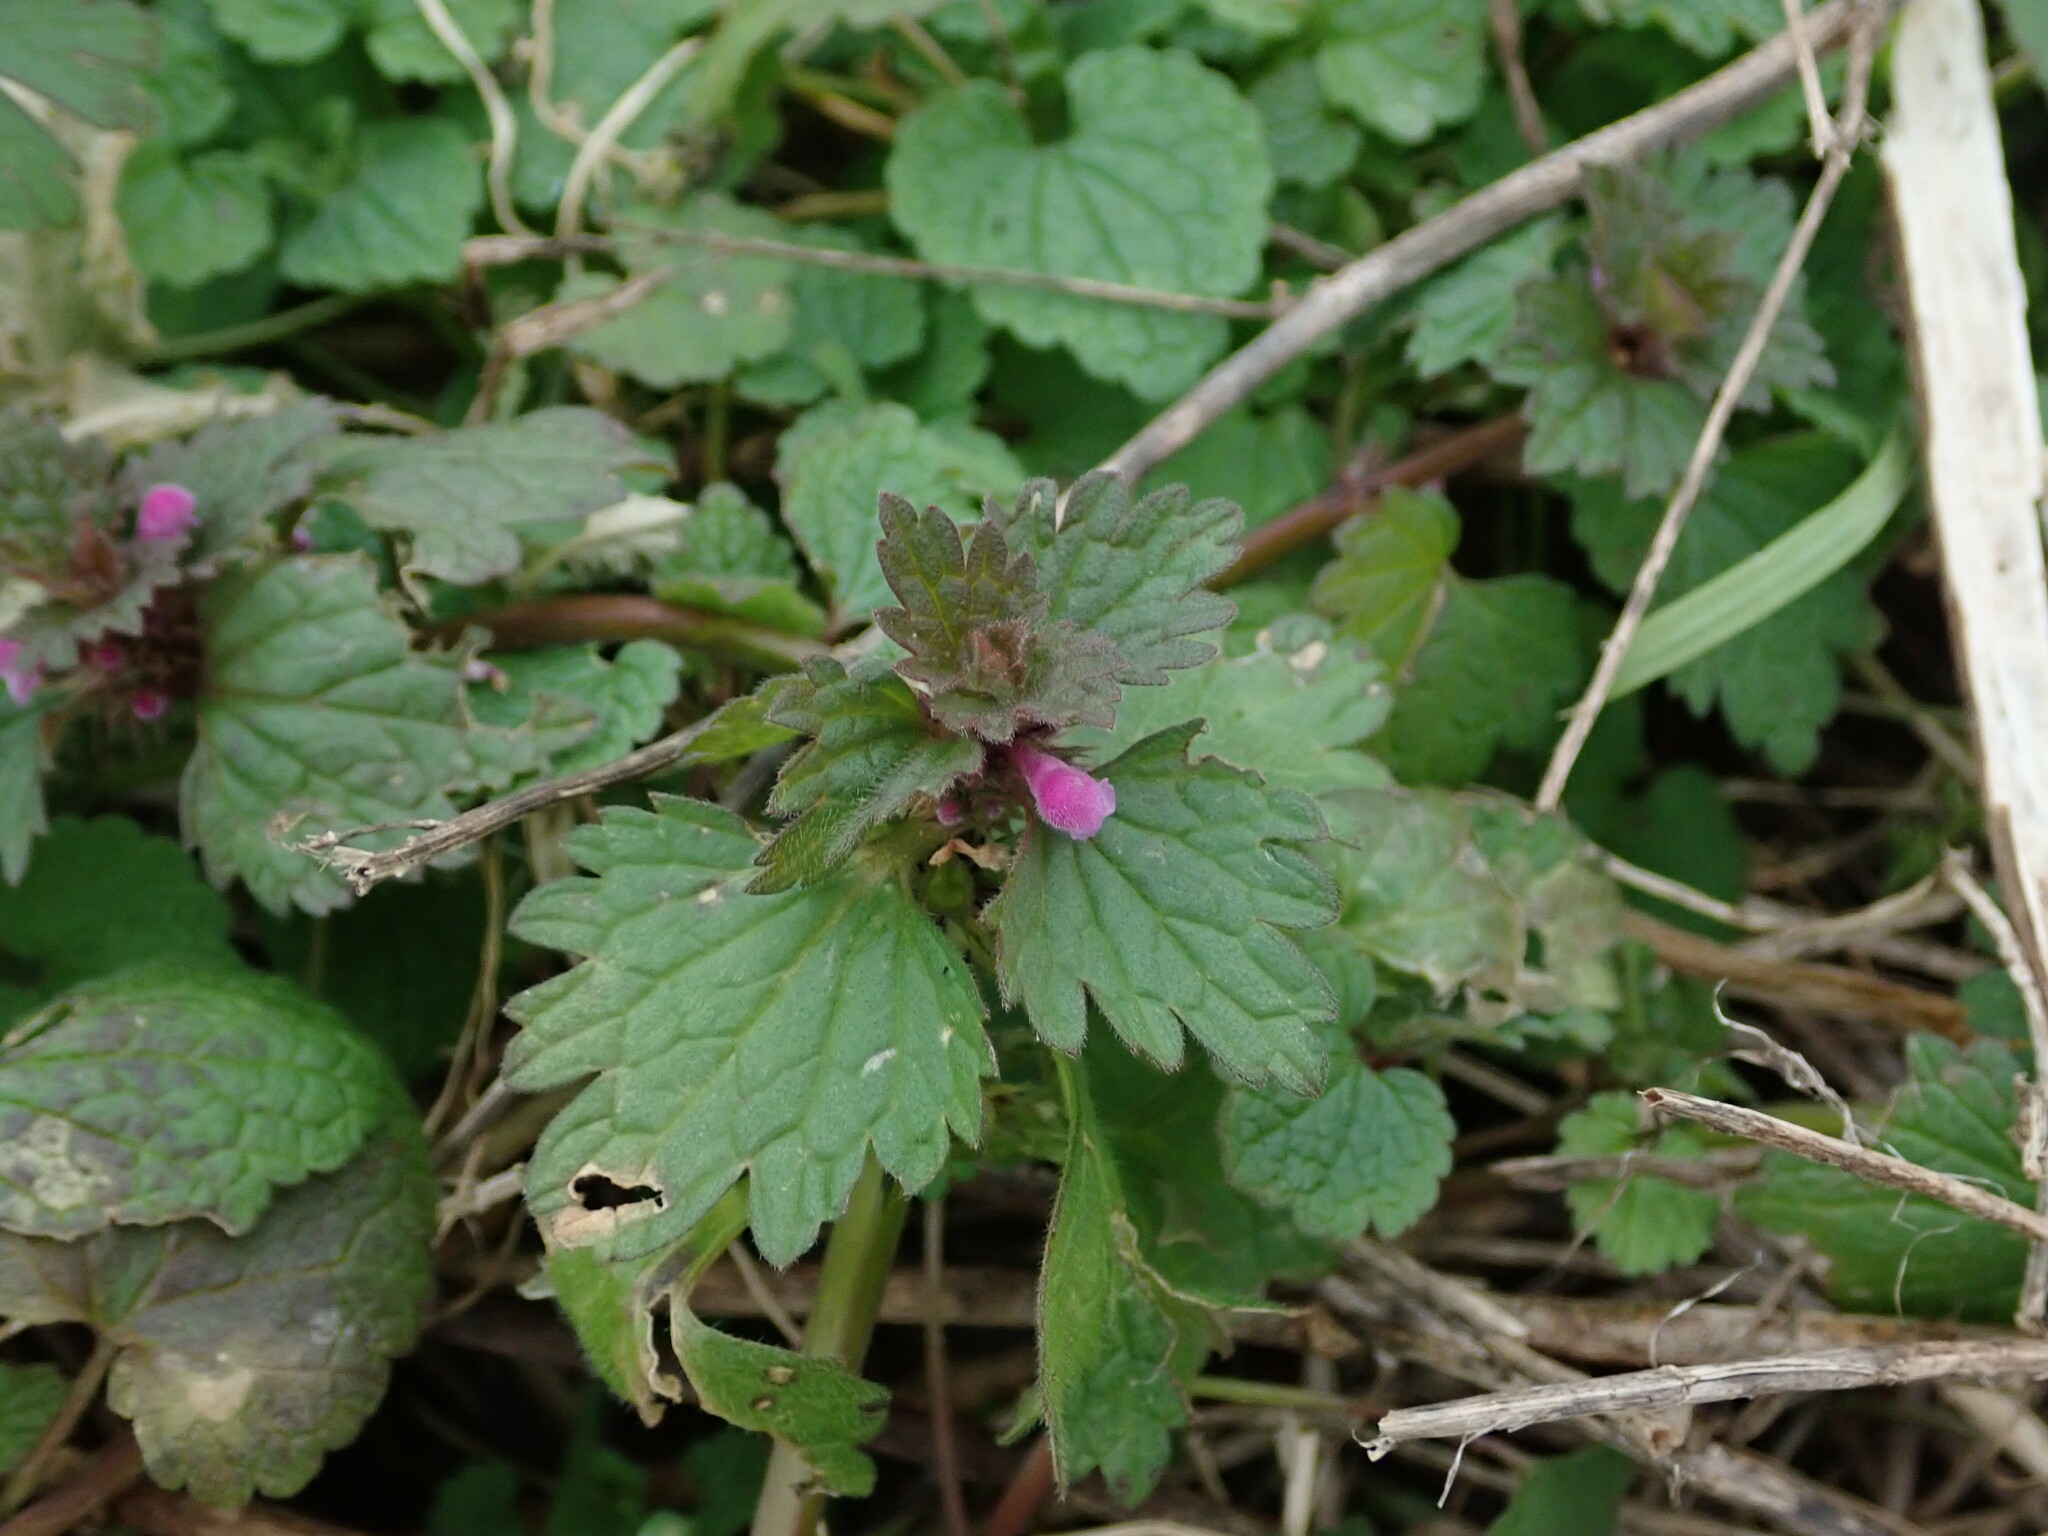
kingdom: Plantae
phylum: Tracheophyta
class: Magnoliopsida
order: Lamiales
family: Lamiaceae
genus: Lamium
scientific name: Lamium hybridum
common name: Cut-leaved dead-nettle
